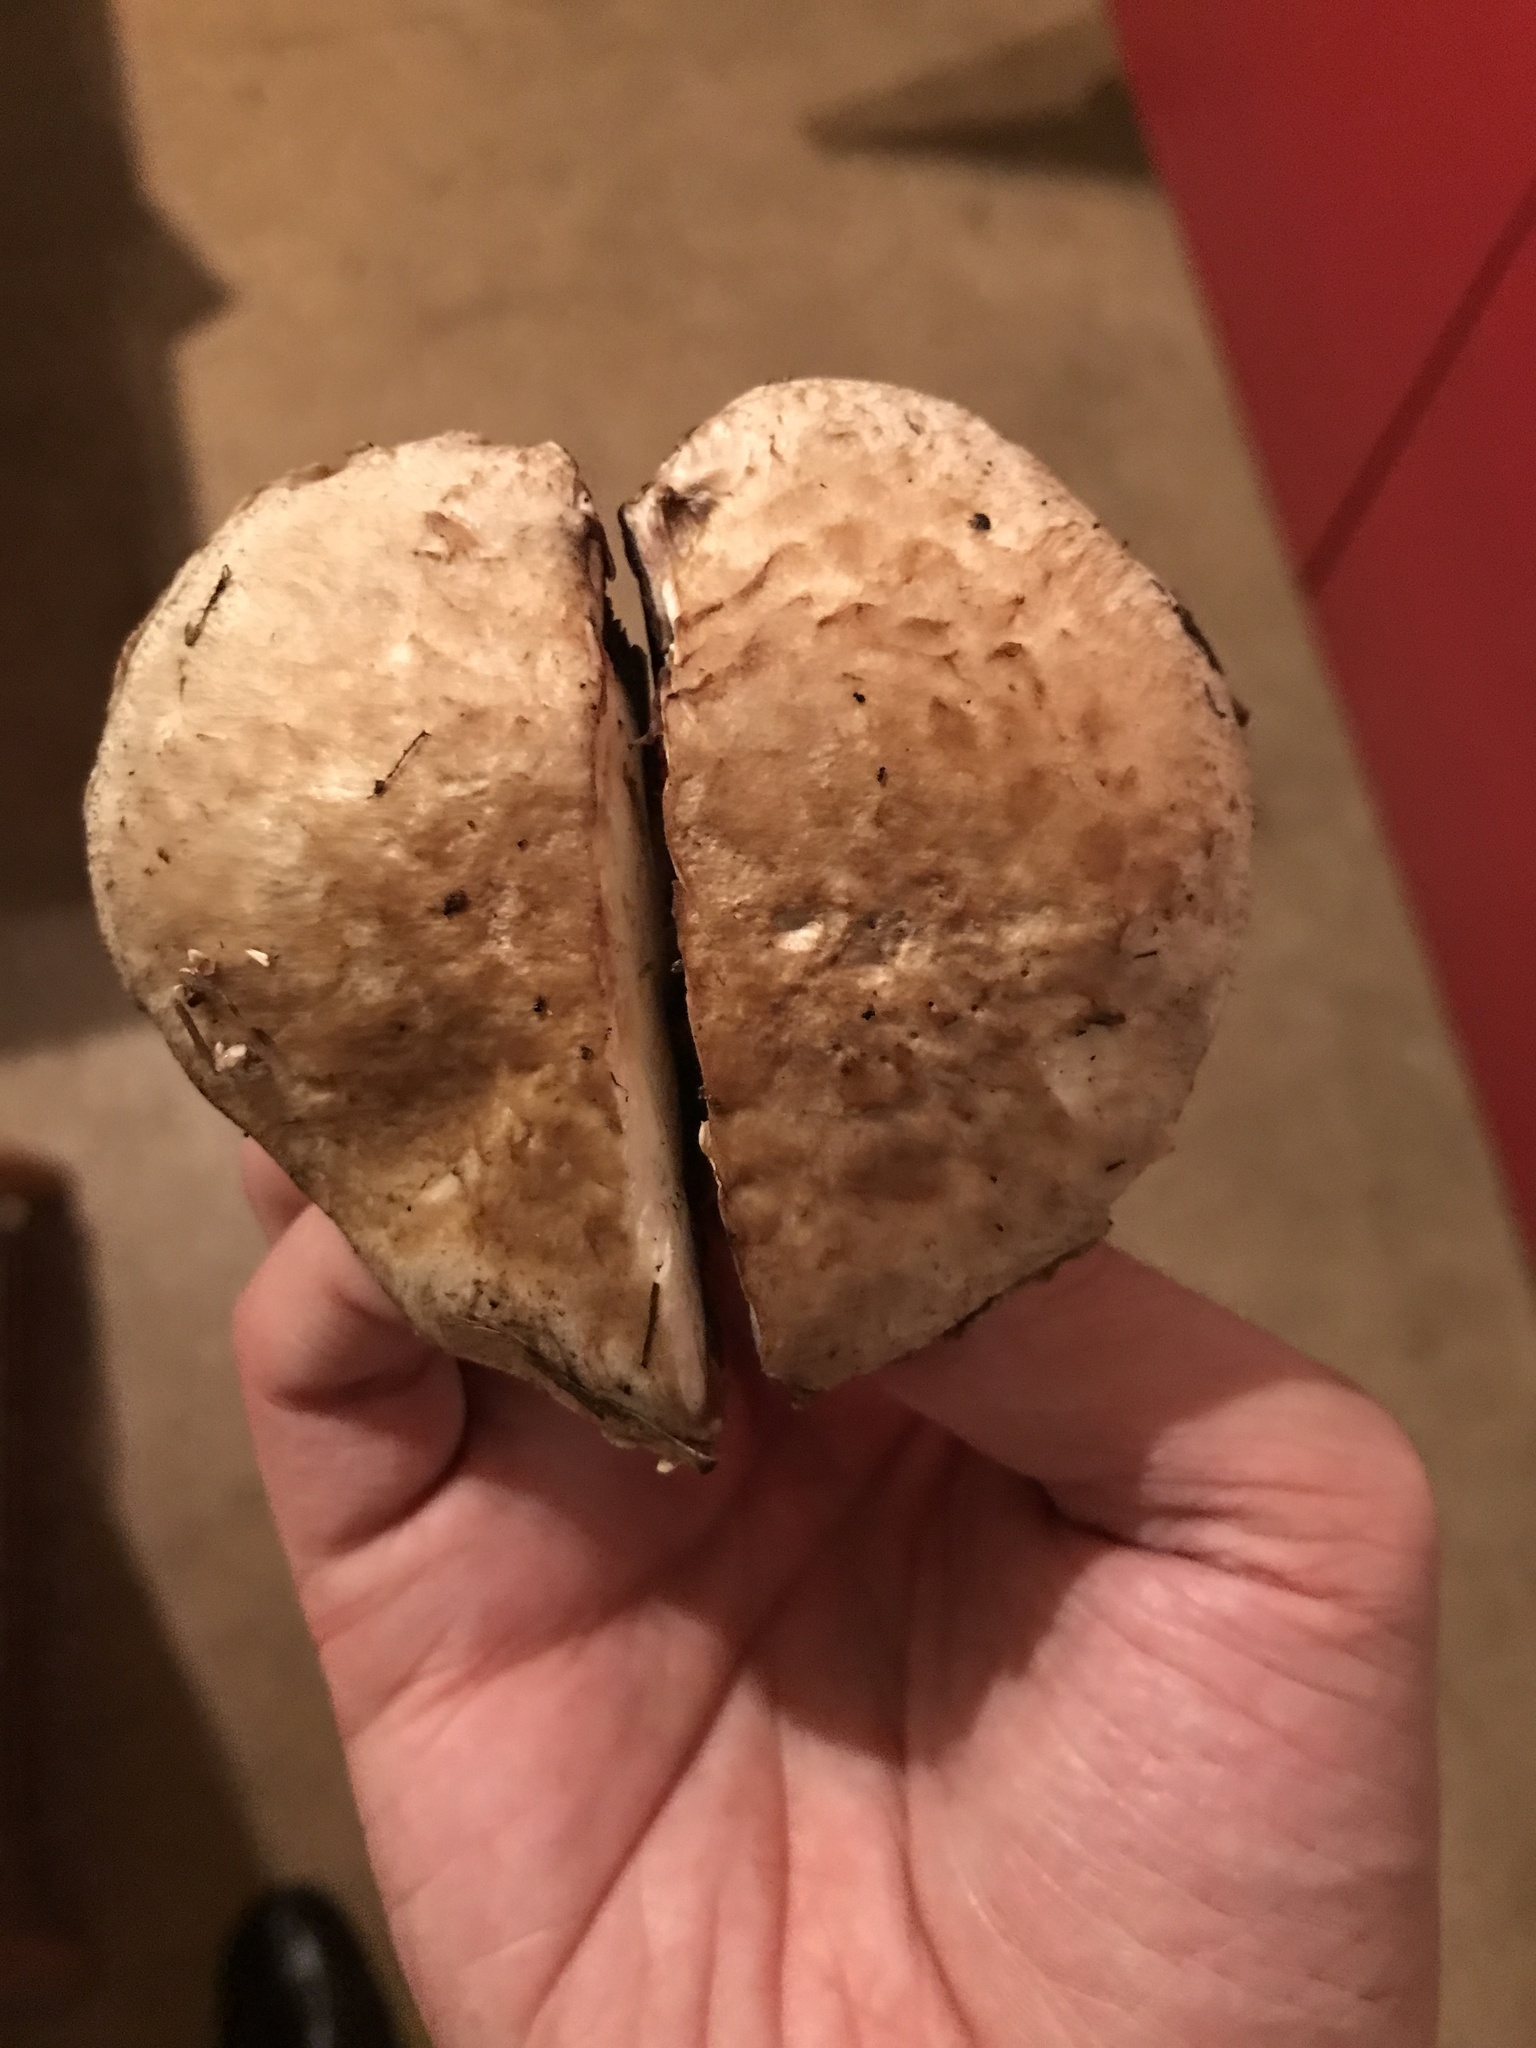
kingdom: Fungi
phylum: Basidiomycota
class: Agaricomycetes
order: Agaricales
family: Agaricaceae
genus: Agaricus
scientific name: Agaricus cappellianus
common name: Clustered mushroom
